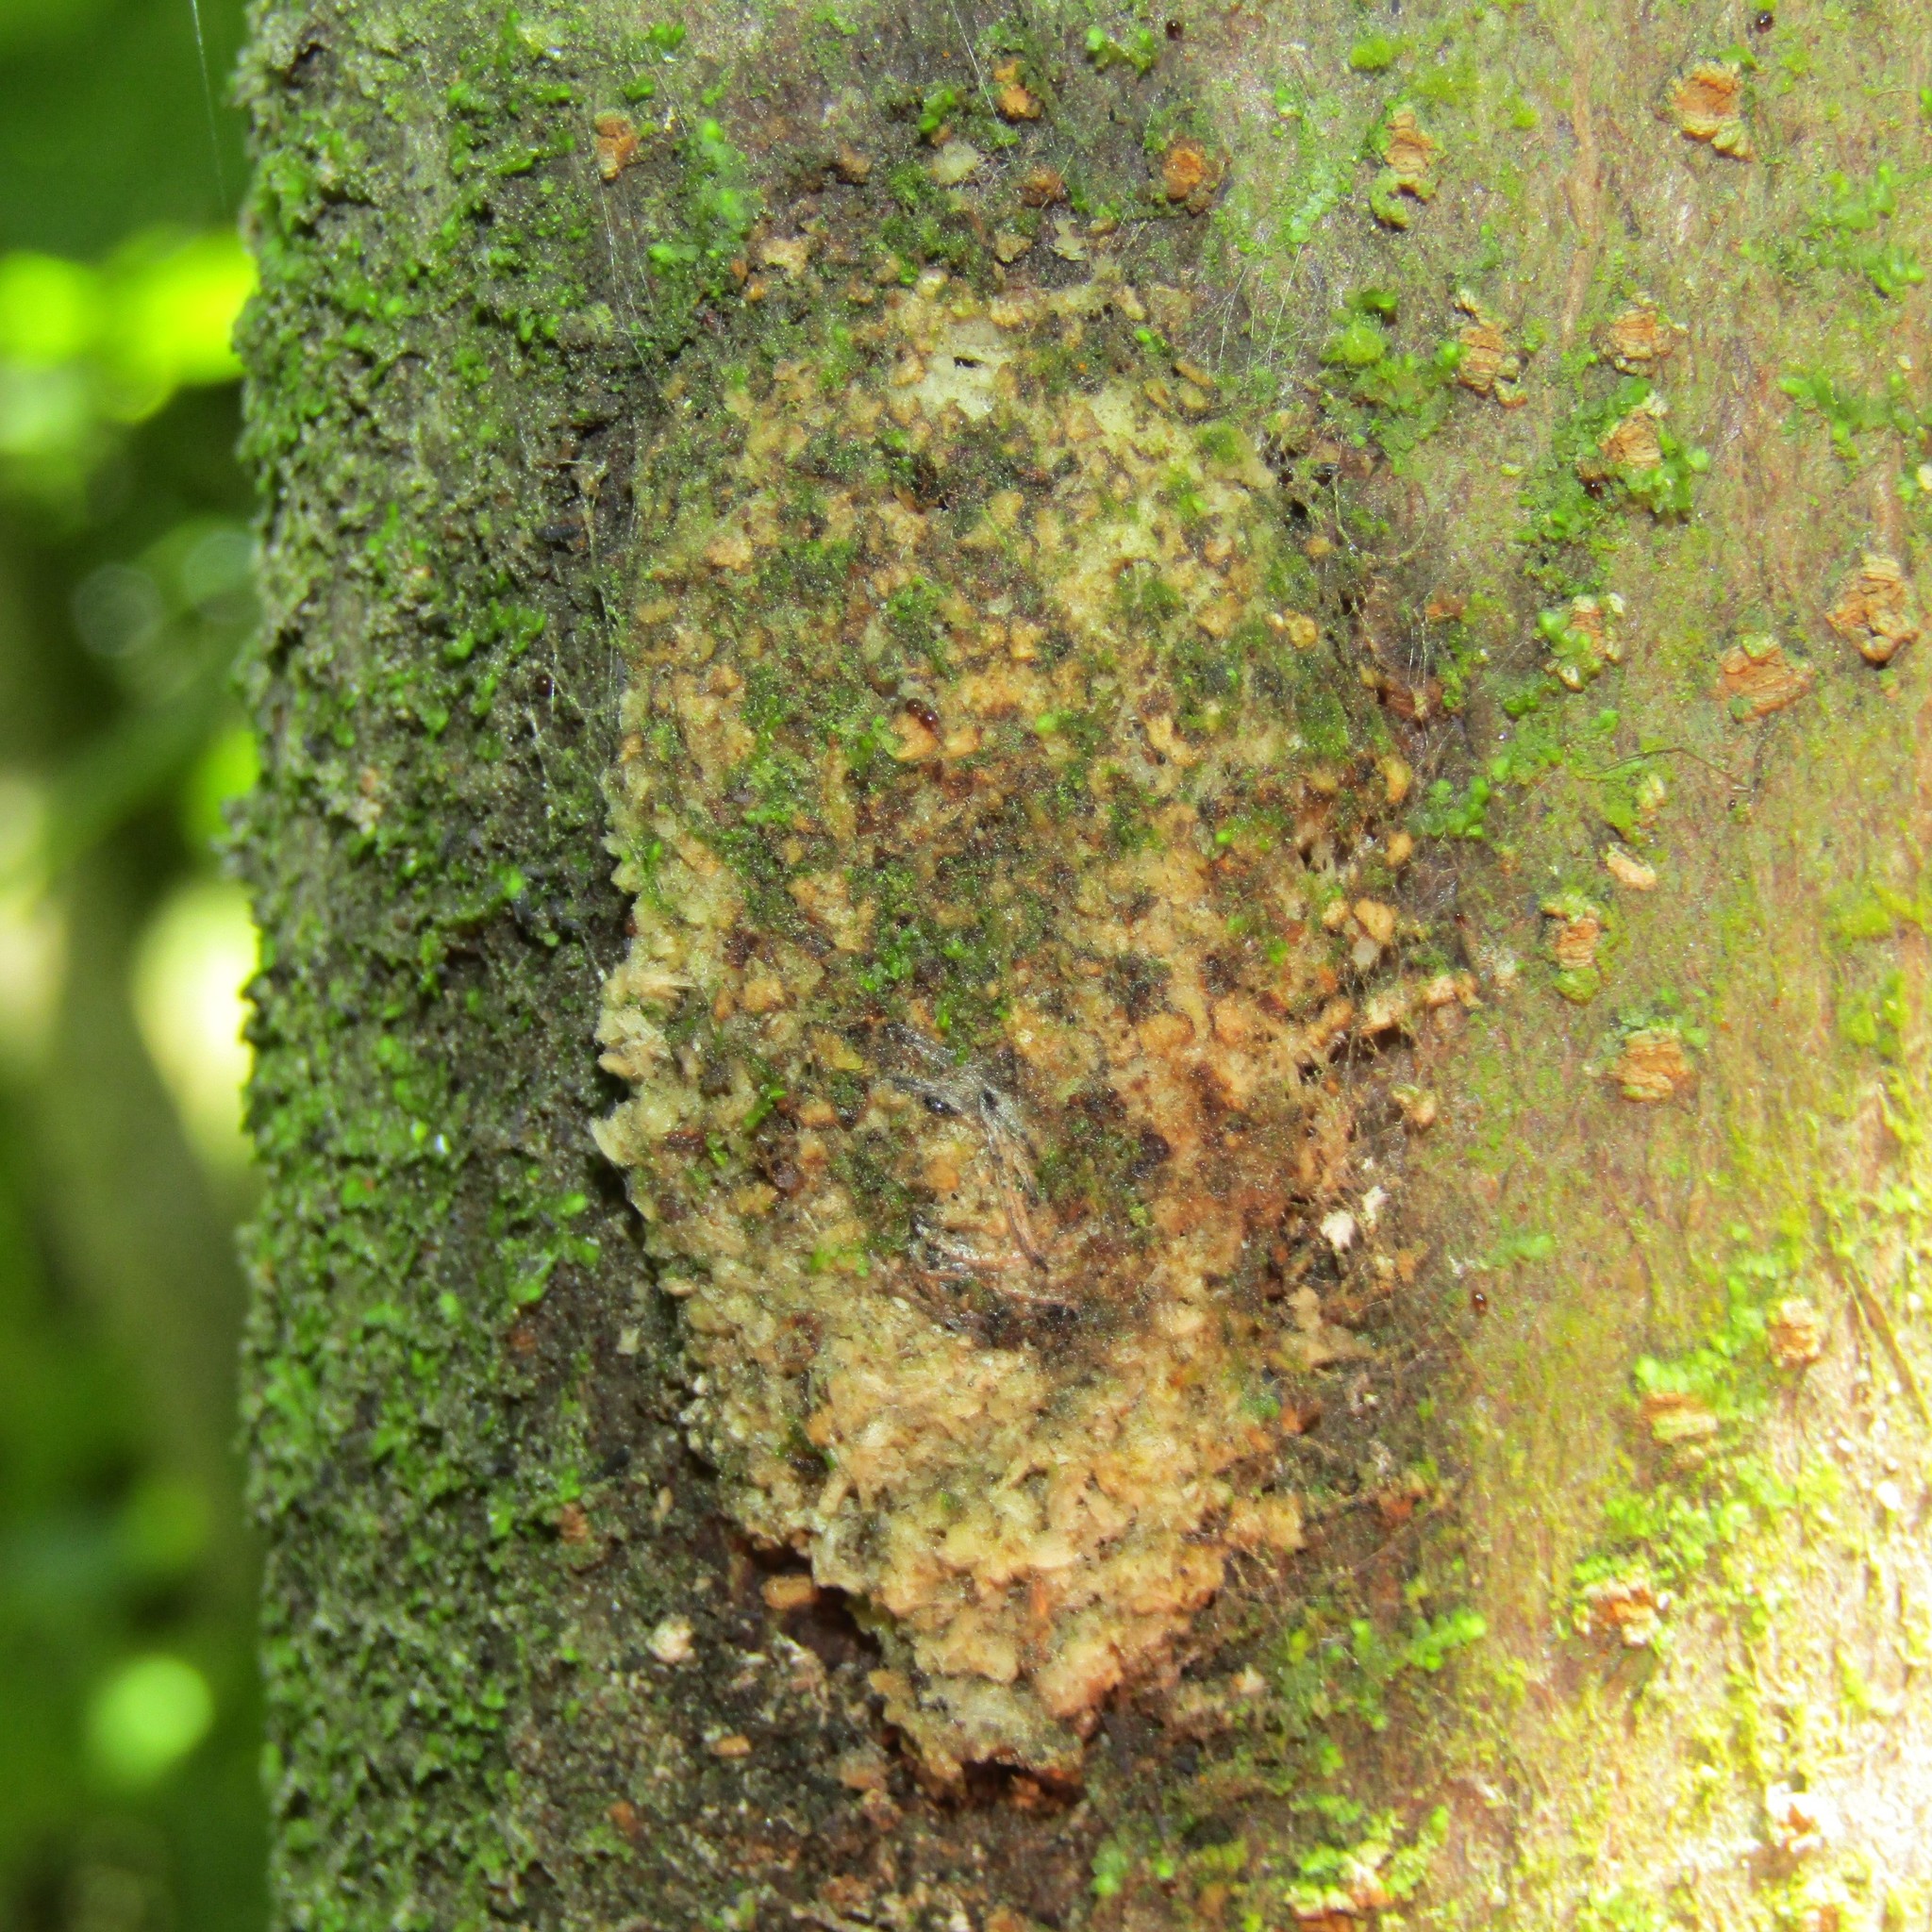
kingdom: Animalia
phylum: Arthropoda
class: Insecta
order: Lepidoptera
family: Hepialidae
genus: Aenetus
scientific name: Aenetus virescens
